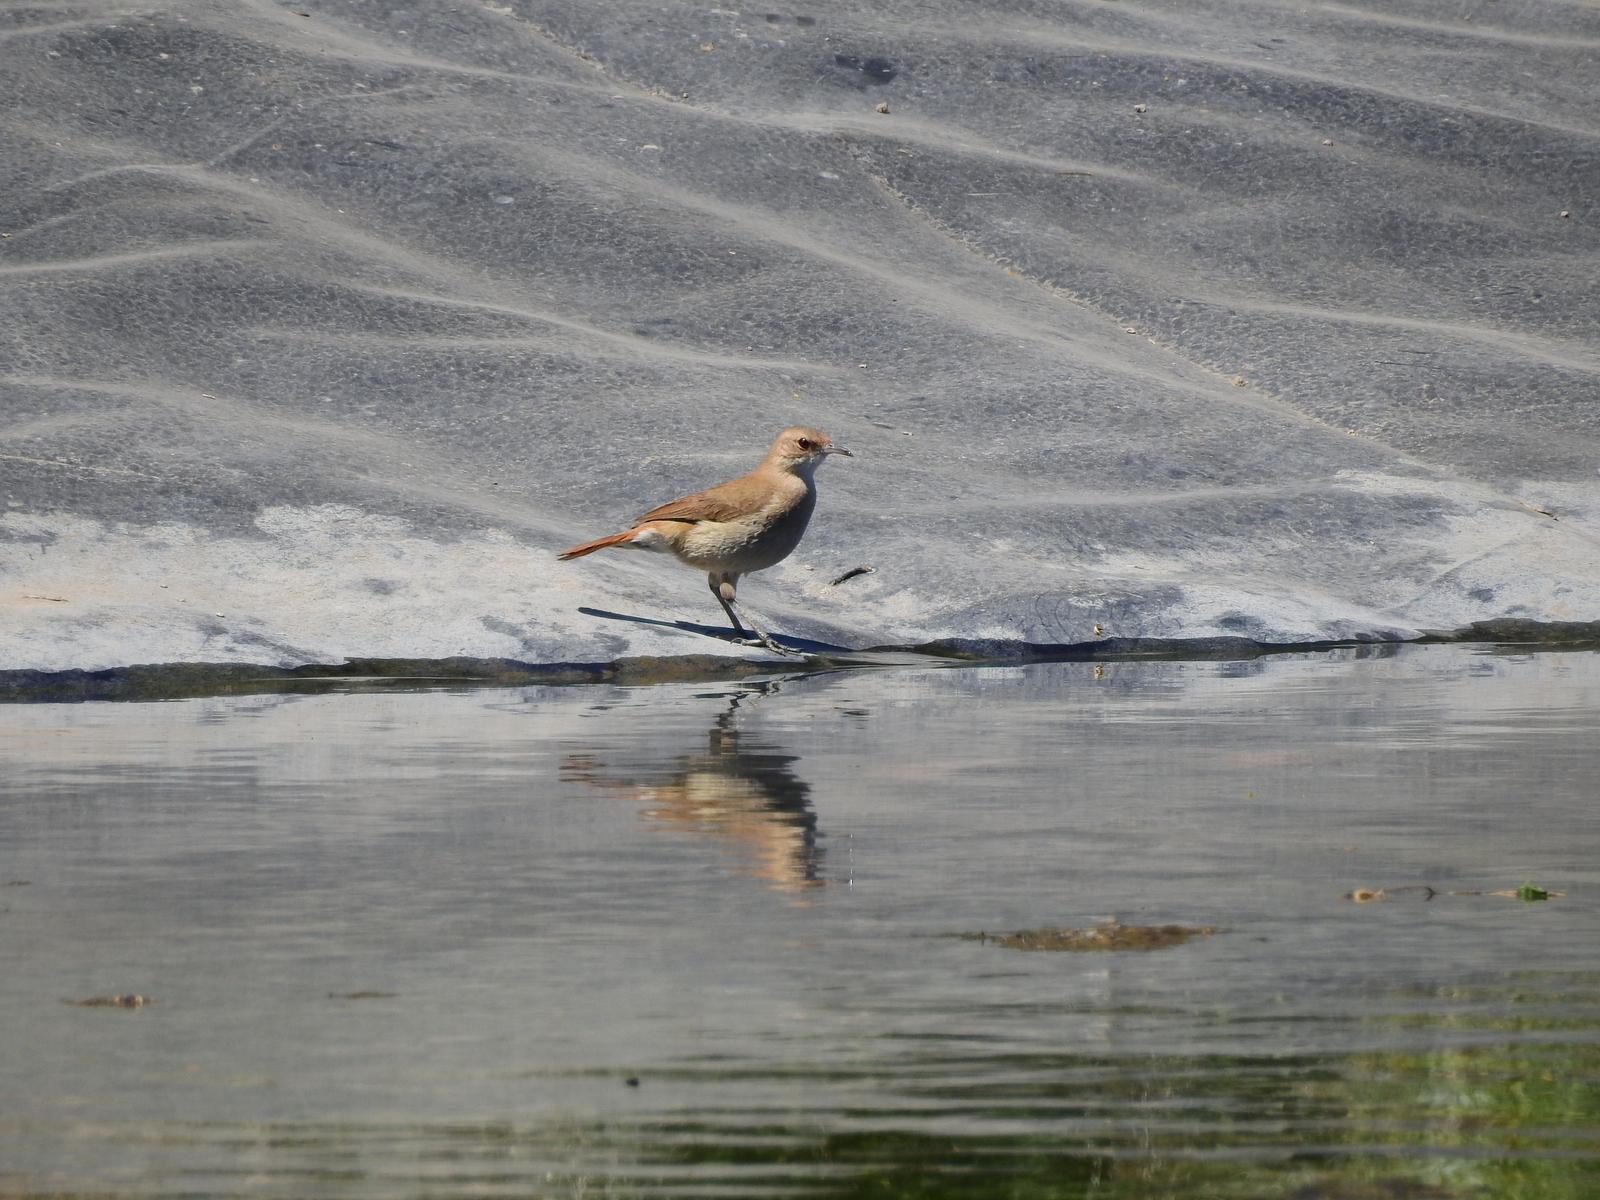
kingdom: Animalia
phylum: Chordata
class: Aves
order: Passeriformes
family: Furnariidae
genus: Furnarius
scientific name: Furnarius rufus
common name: Rufous hornero
